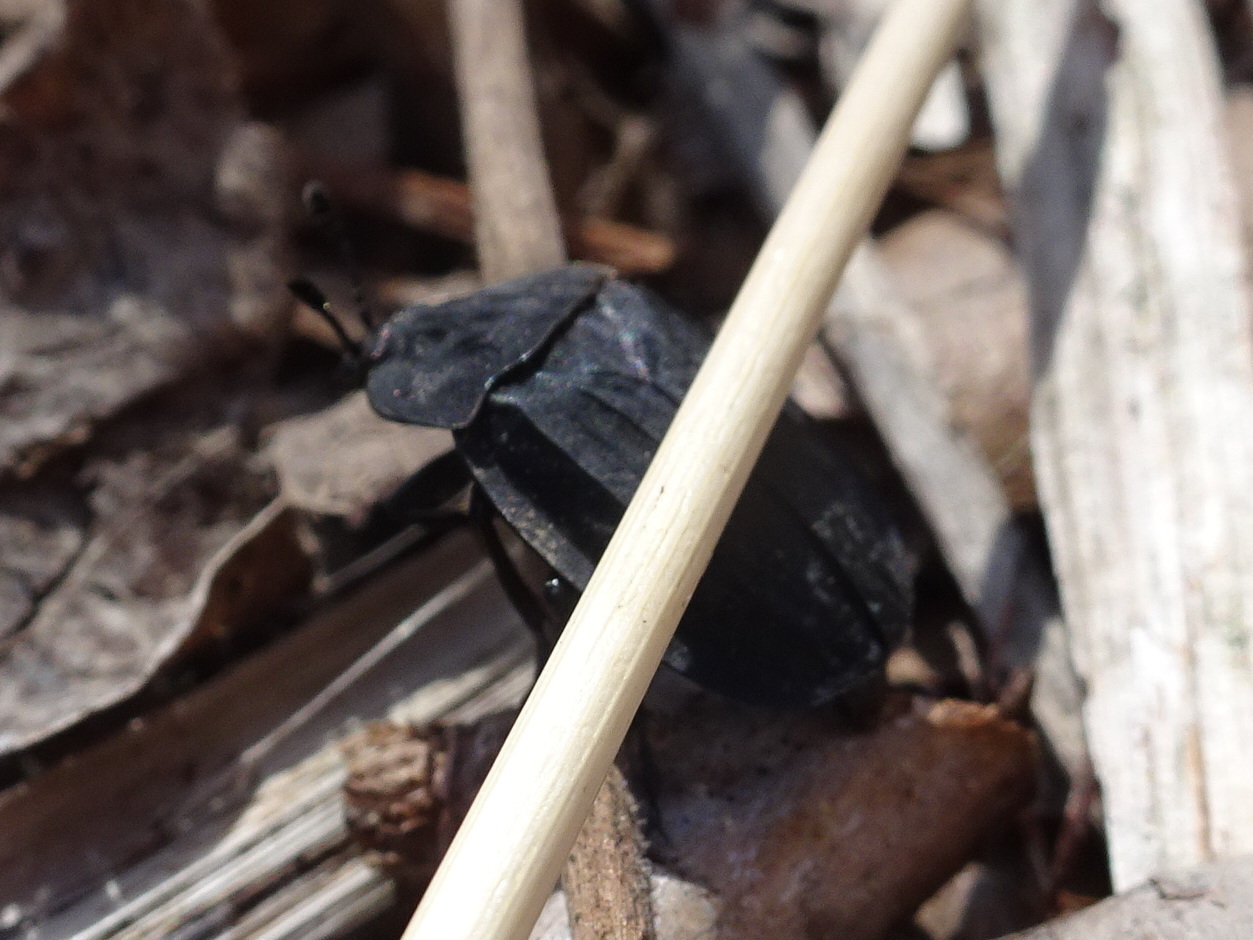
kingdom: Animalia
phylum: Arthropoda
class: Insecta
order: Coleoptera
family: Staphylinidae
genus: Oiceoptoma
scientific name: Oiceoptoma inaequale
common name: Ridged carrion beetle
